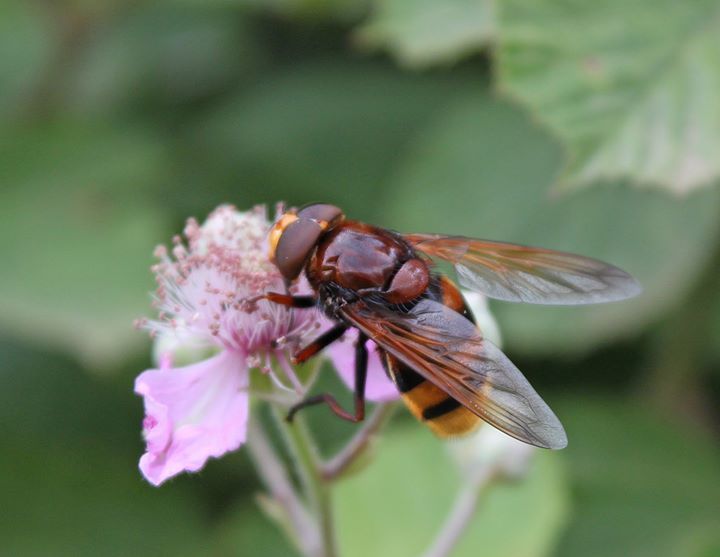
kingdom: Animalia
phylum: Arthropoda
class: Insecta
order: Diptera
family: Syrphidae
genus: Volucella
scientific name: Volucella zonaria
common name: Hornet hoverfly
